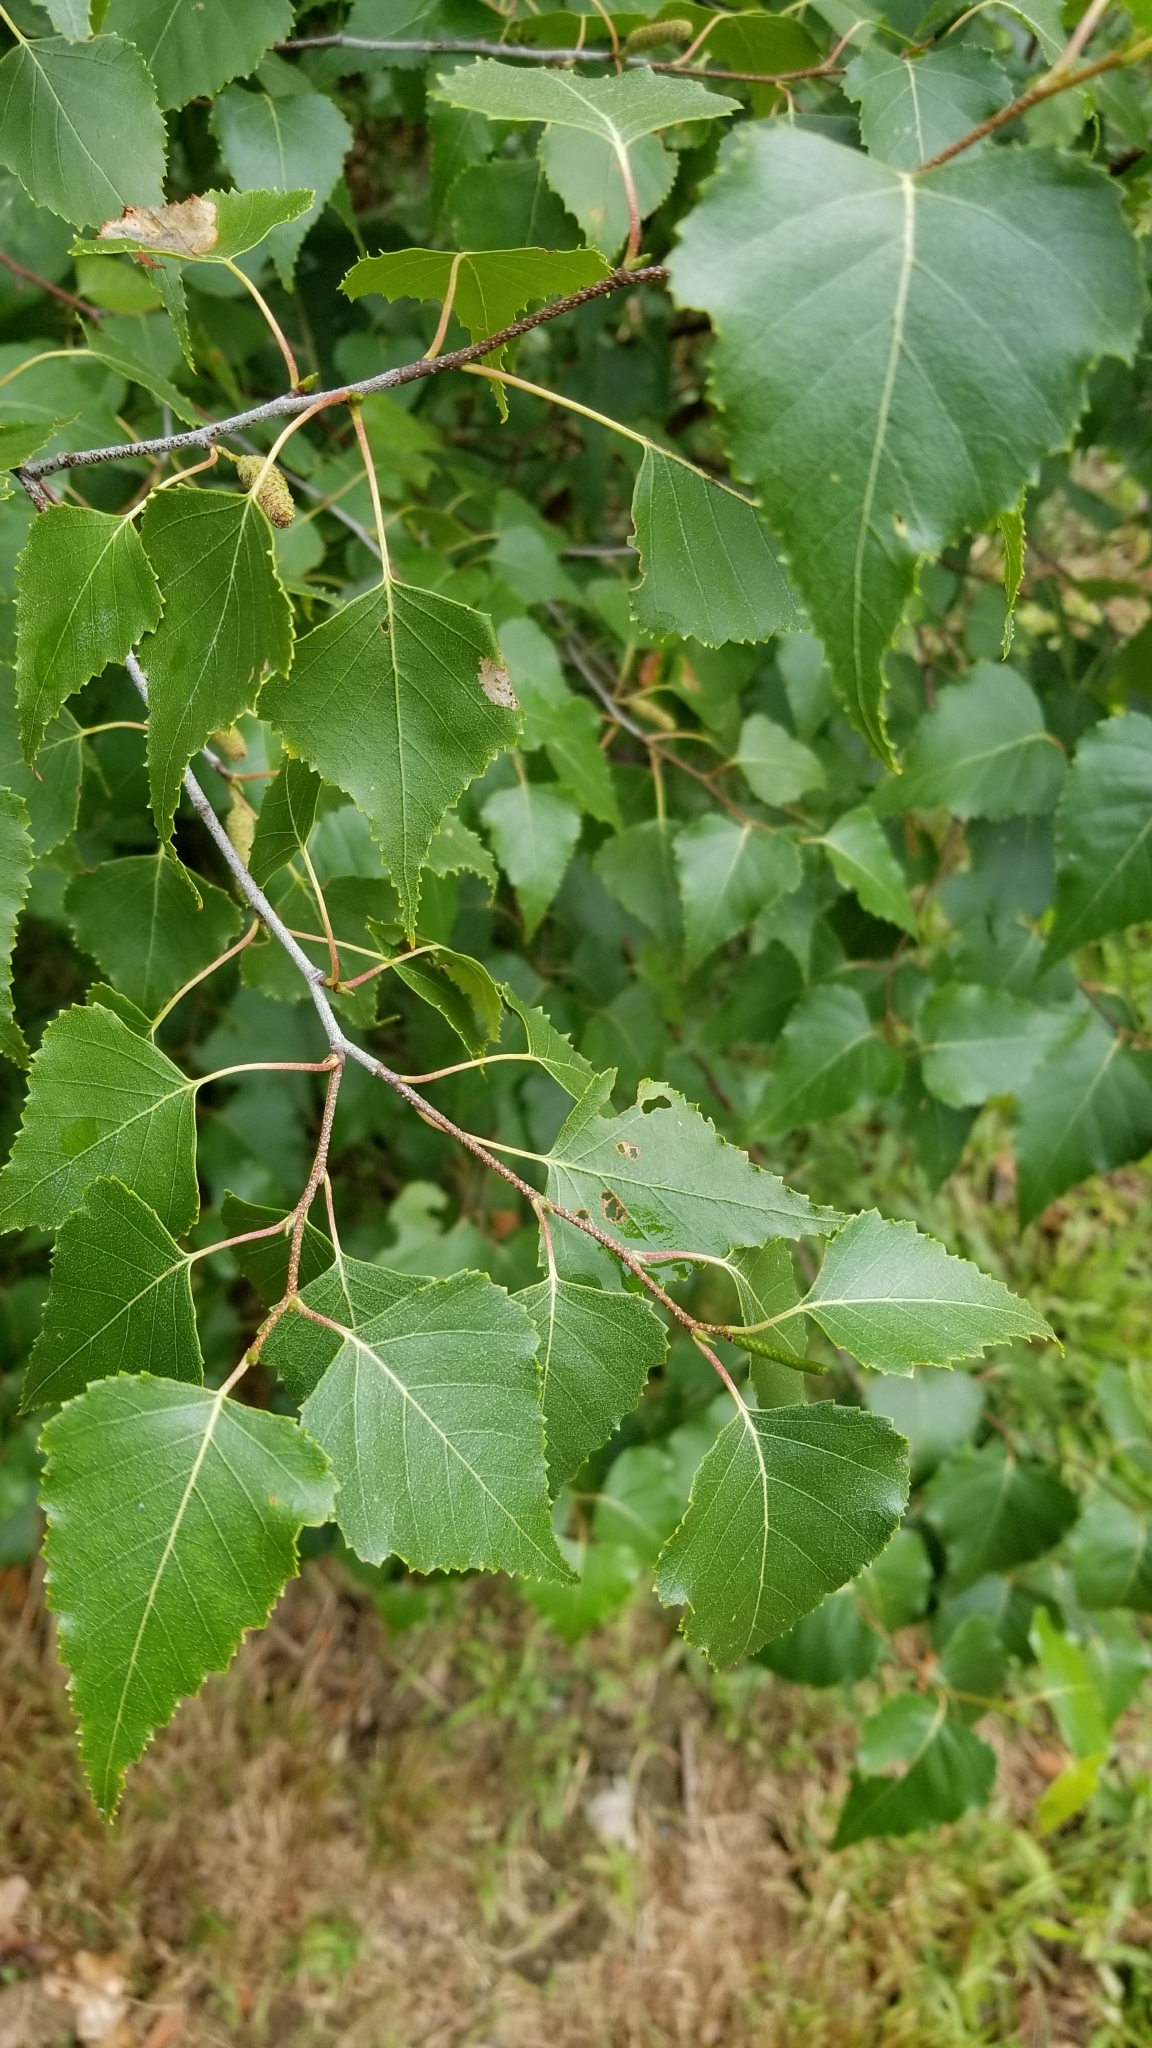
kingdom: Plantae
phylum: Tracheophyta
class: Magnoliopsida
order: Fagales
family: Betulaceae
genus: Betula
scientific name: Betula populifolia
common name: Fire birch
